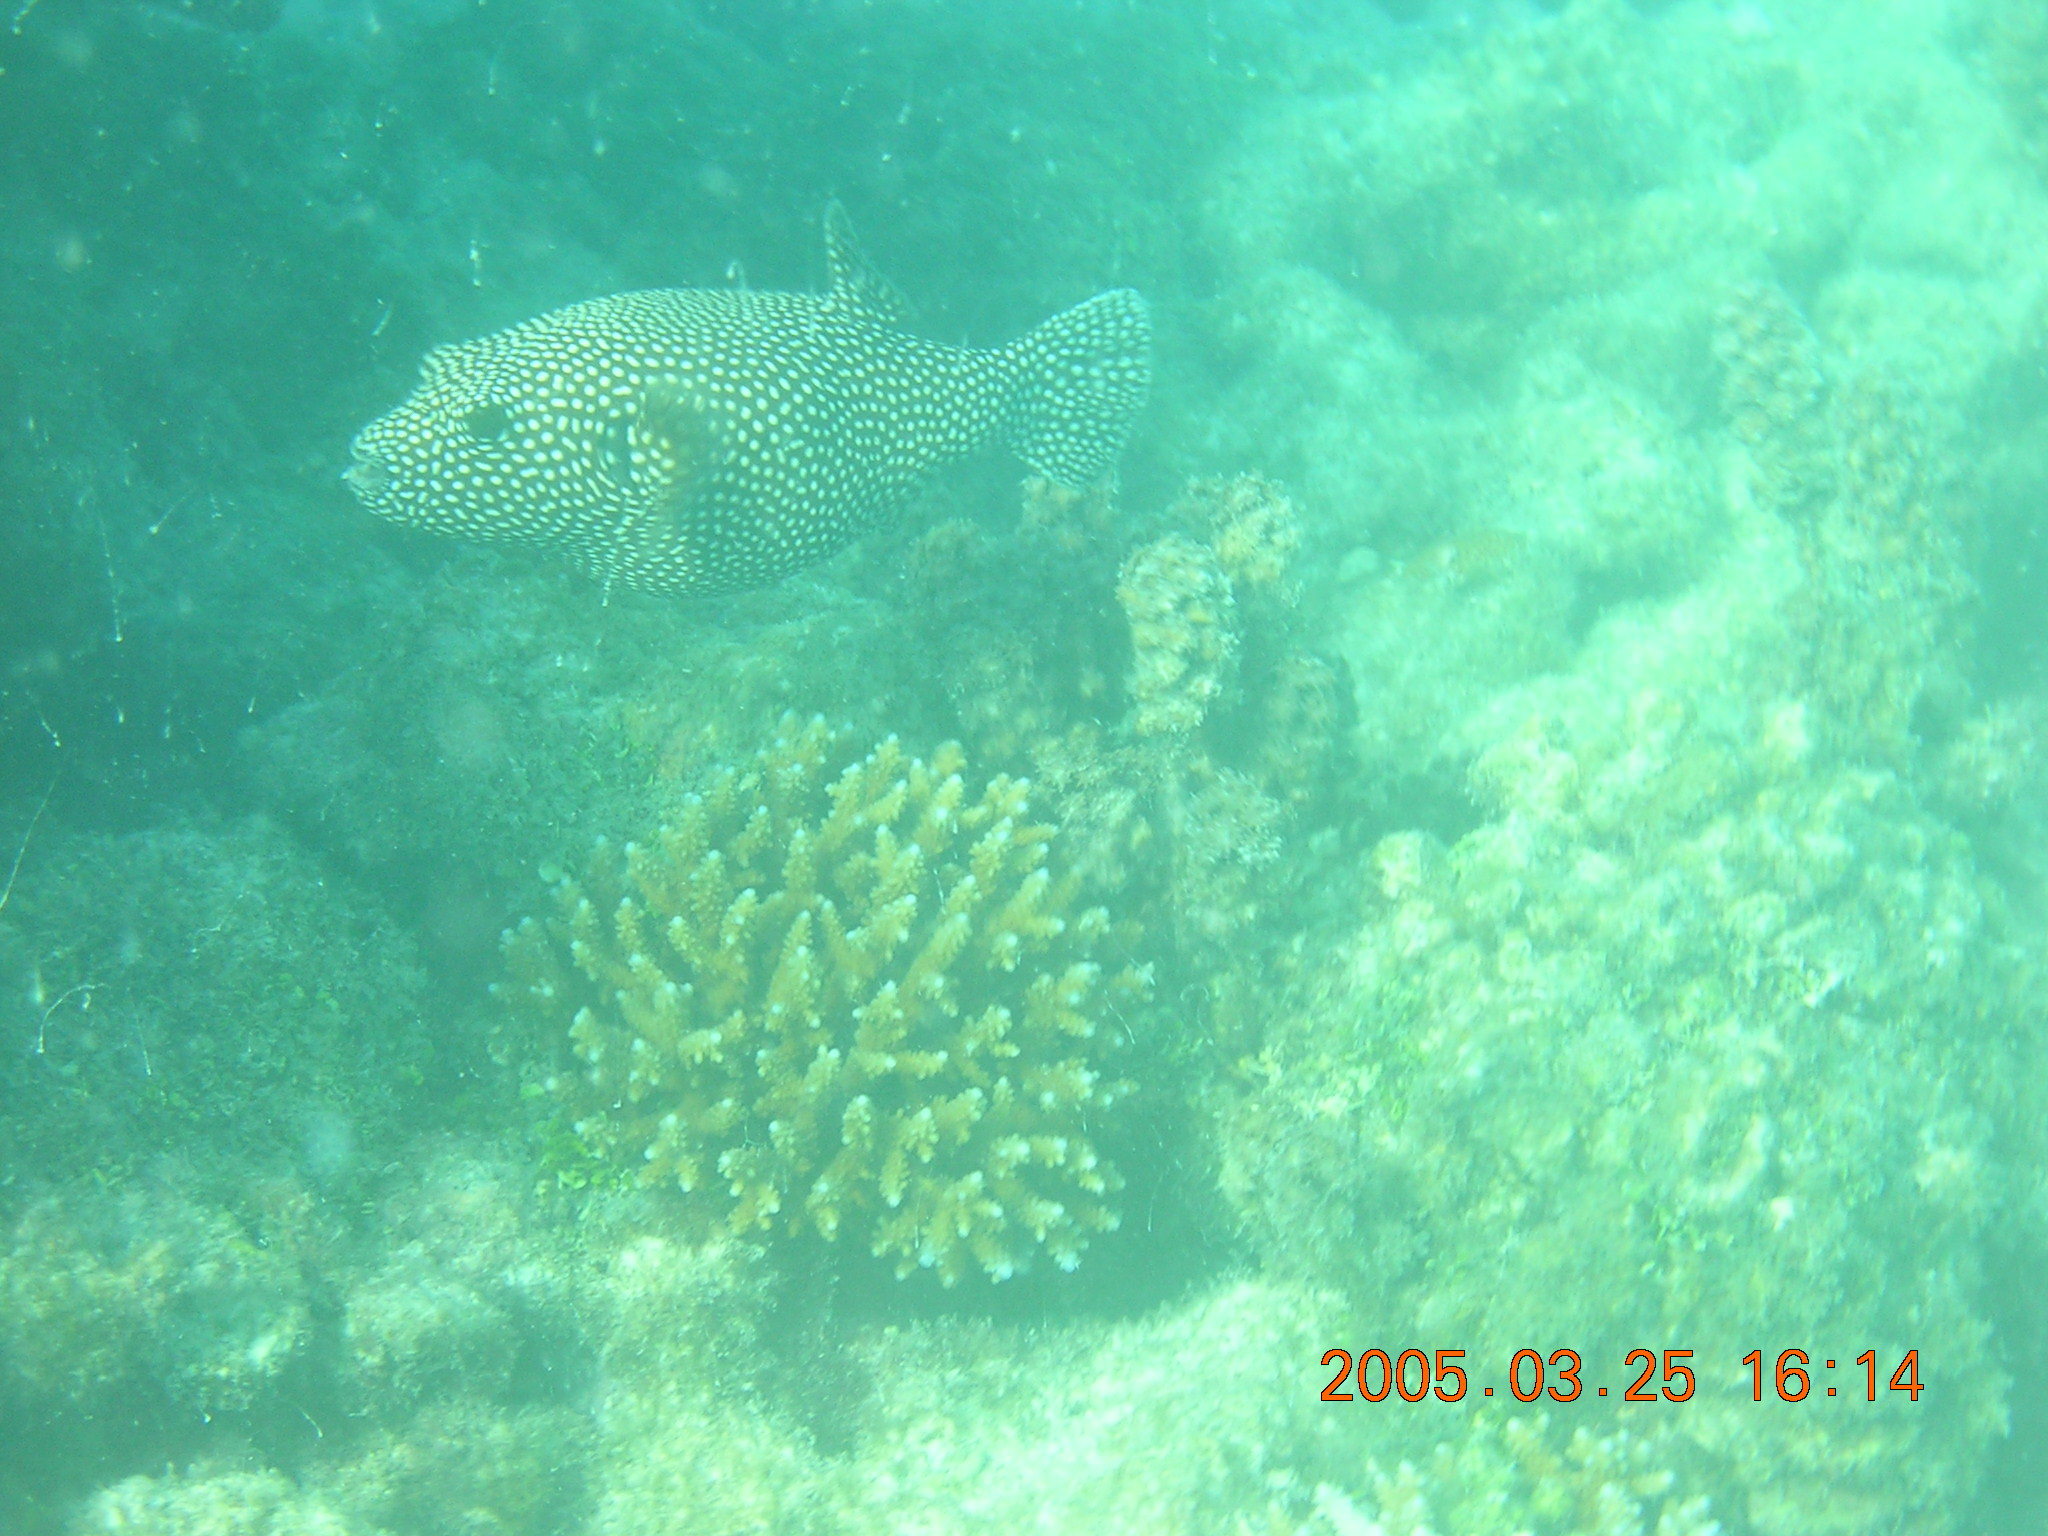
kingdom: Animalia
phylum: Chordata
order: Tetraodontiformes
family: Tetraodontidae
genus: Arothron
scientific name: Arothron meleagris
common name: Guinea-fowl pufferfish
